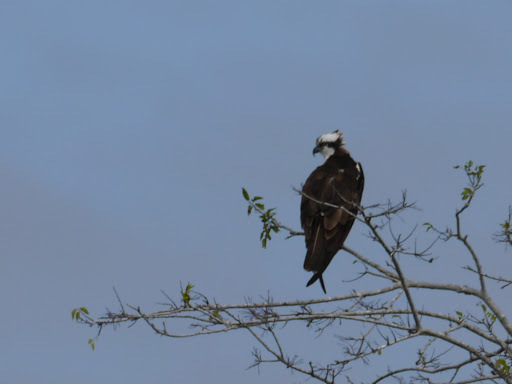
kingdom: Animalia
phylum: Chordata
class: Aves
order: Accipitriformes
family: Pandionidae
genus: Pandion
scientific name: Pandion haliaetus
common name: Osprey
